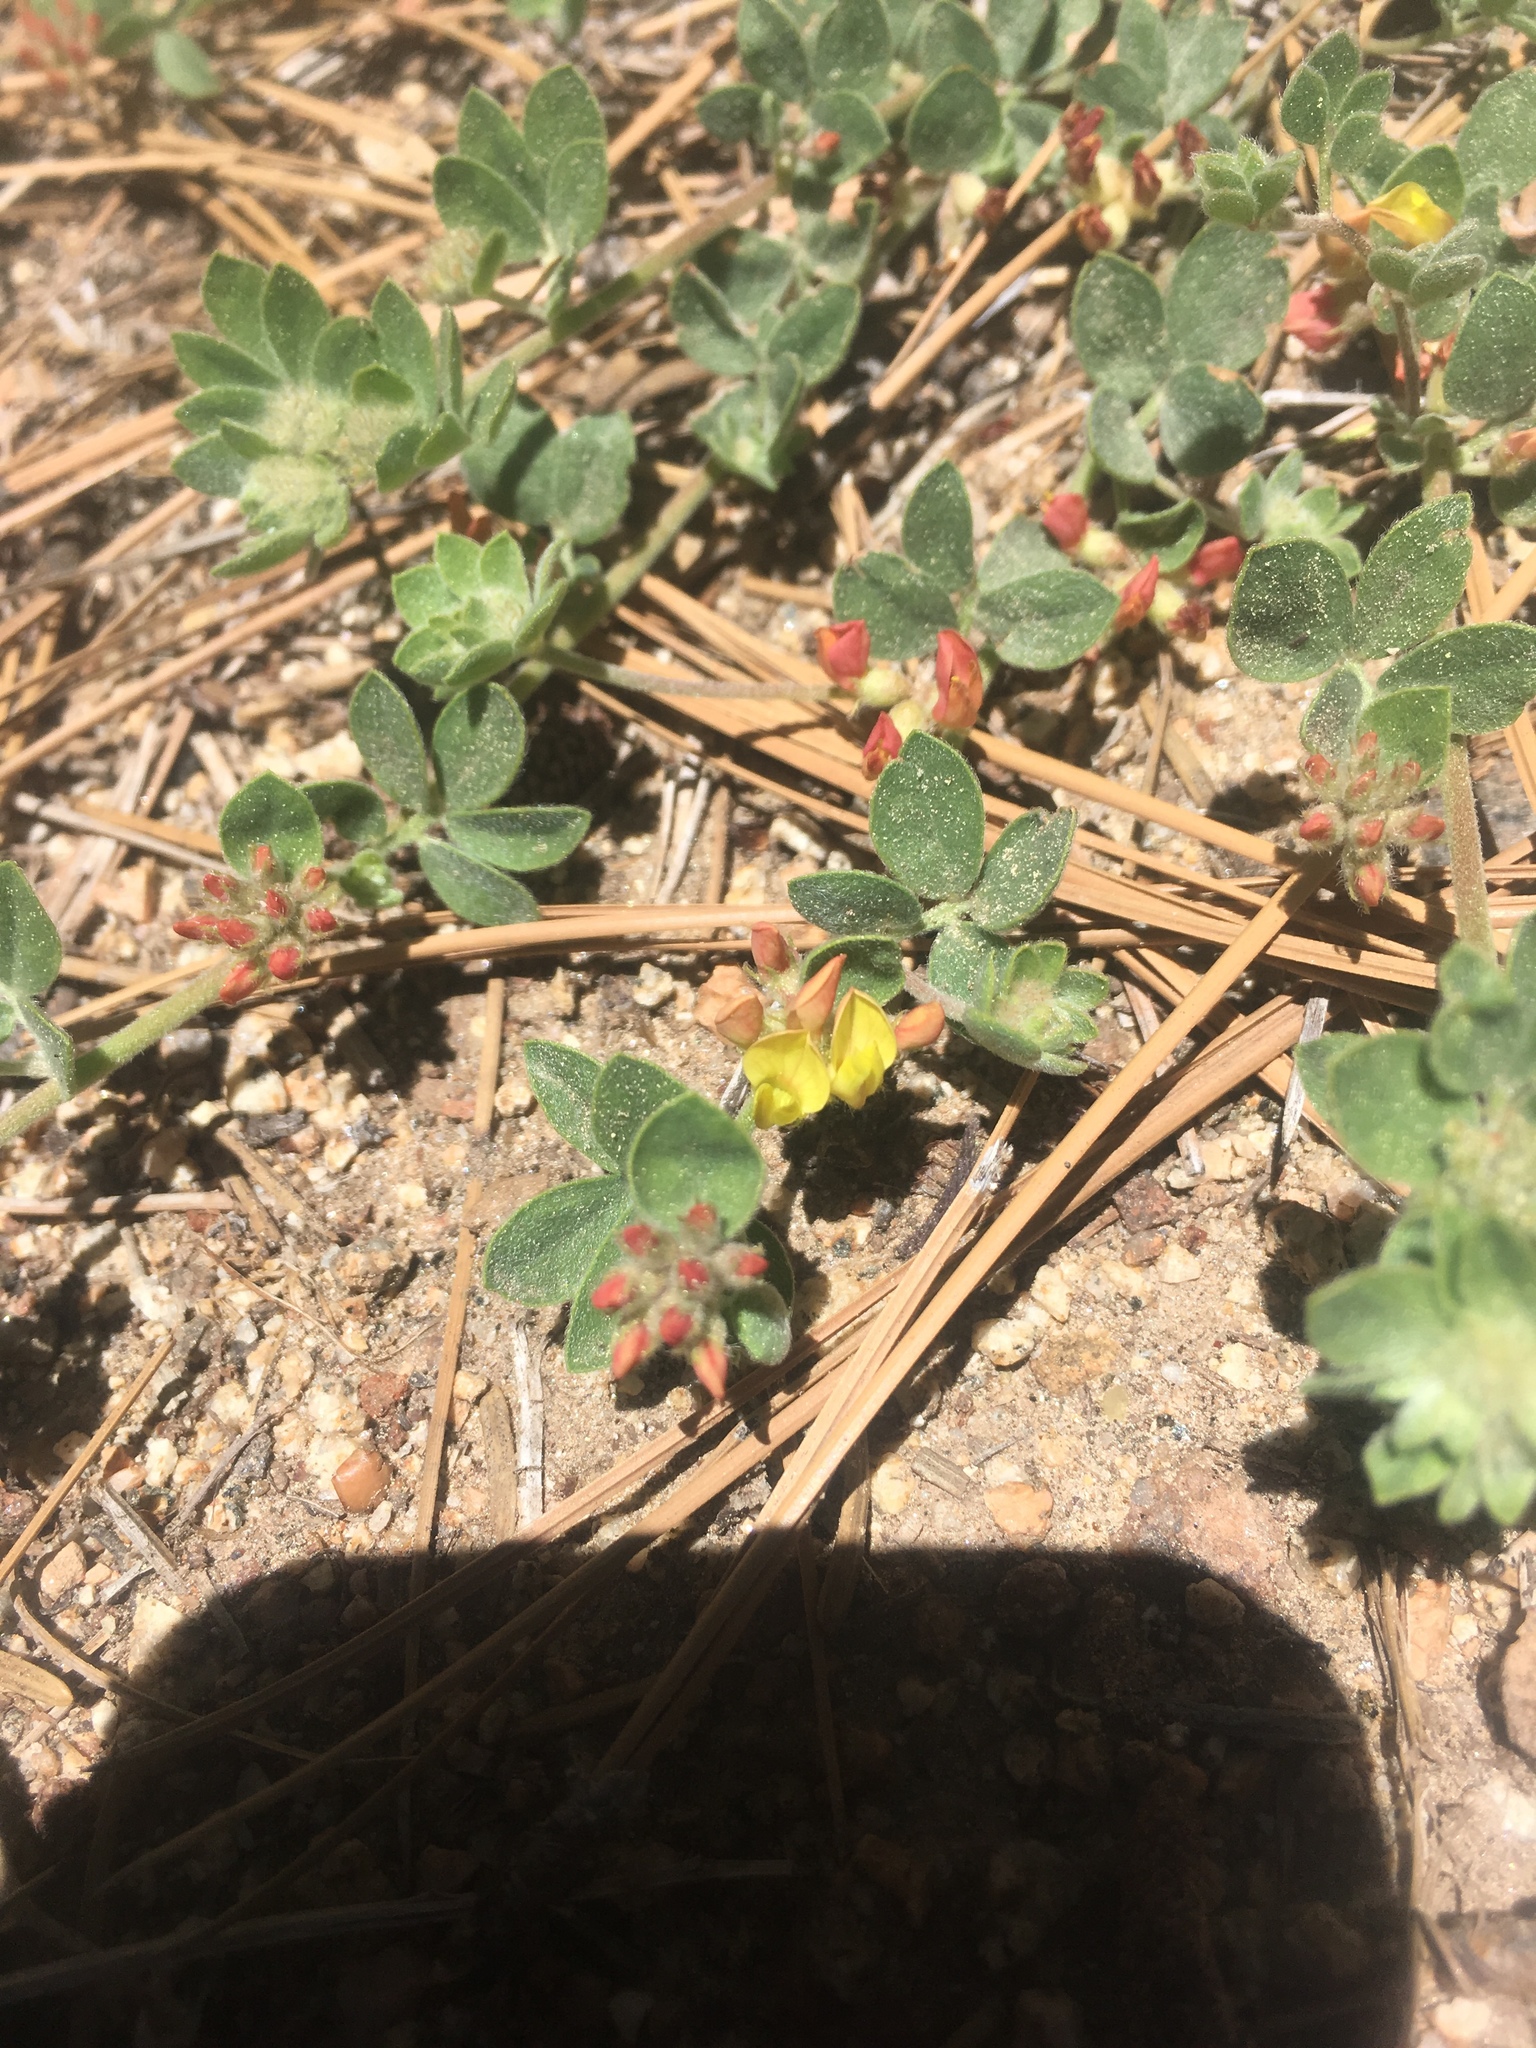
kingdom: Plantae
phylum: Tracheophyta
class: Magnoliopsida
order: Fabales
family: Fabaceae
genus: Acmispon
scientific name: Acmispon decumbens
